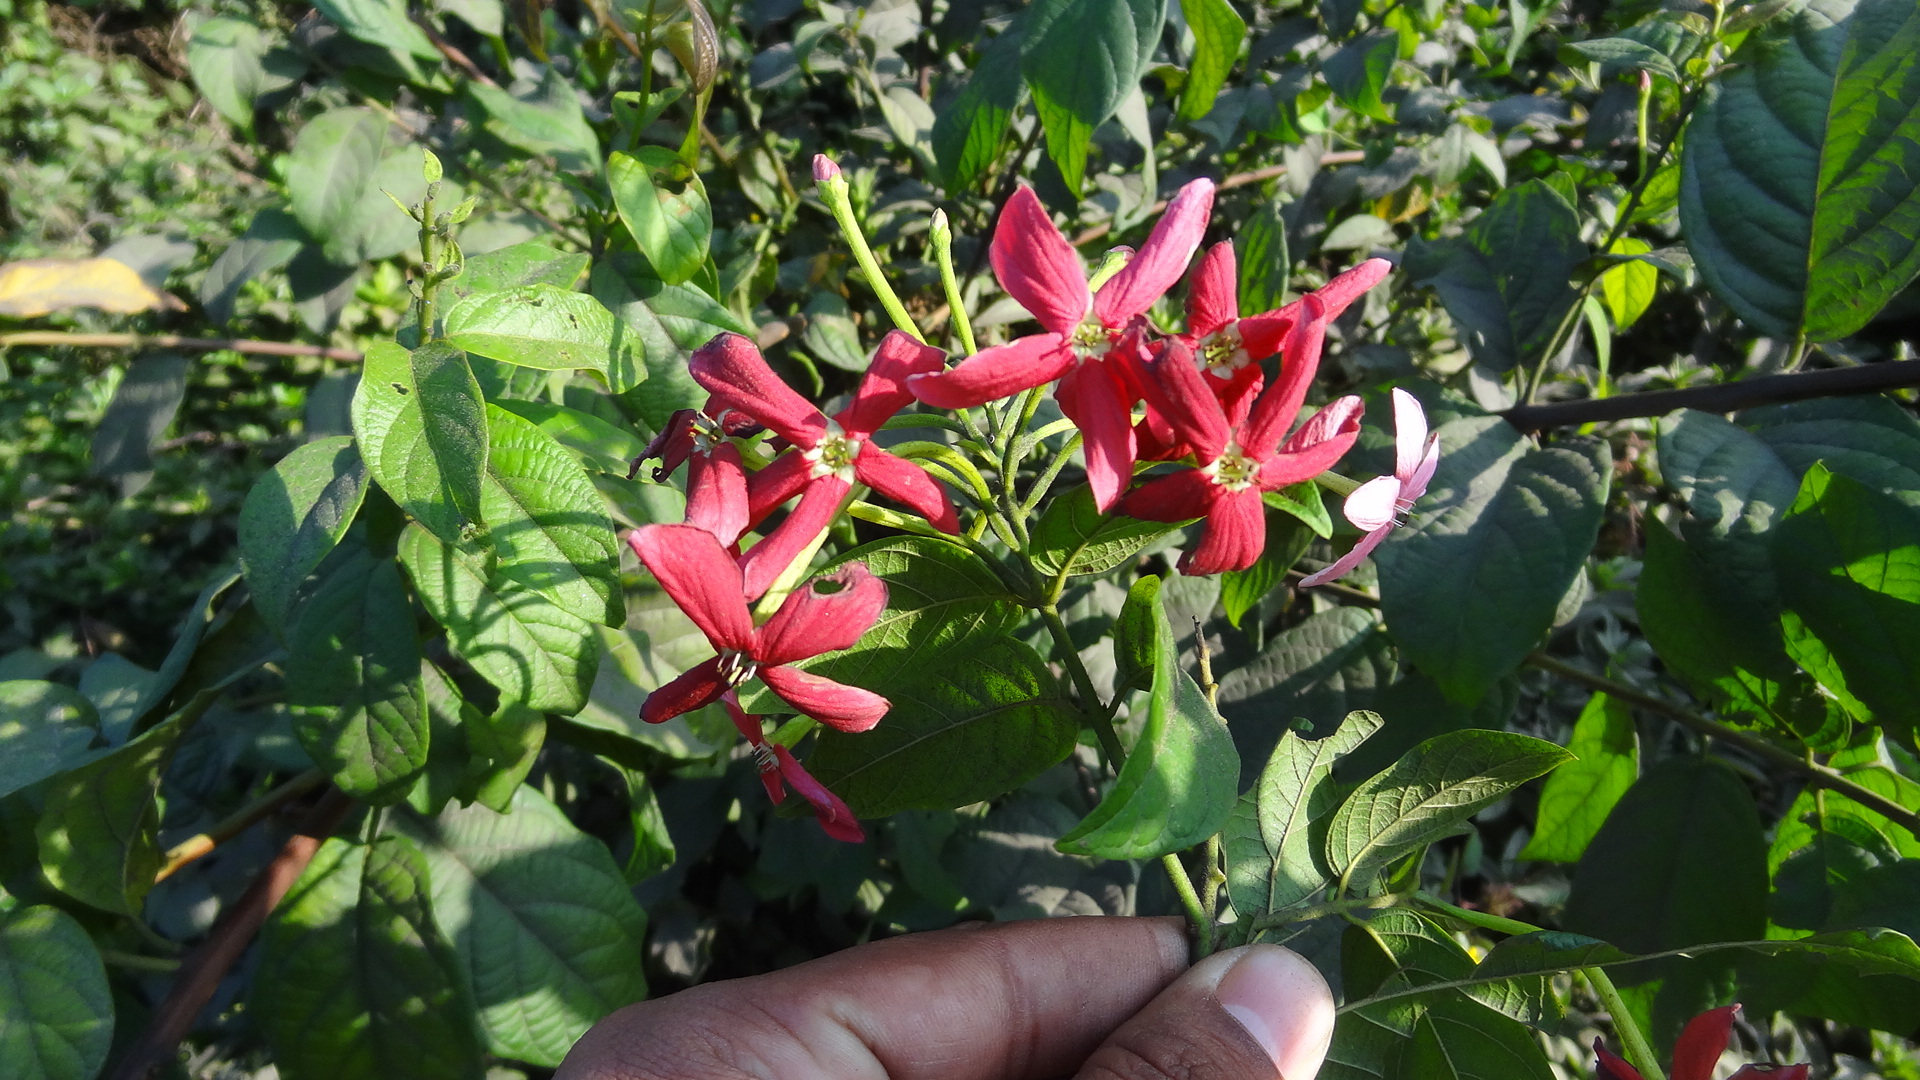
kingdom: Plantae
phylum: Tracheophyta
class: Magnoliopsida
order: Myrtales
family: Combretaceae
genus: Combretum
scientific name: Combretum indicum
